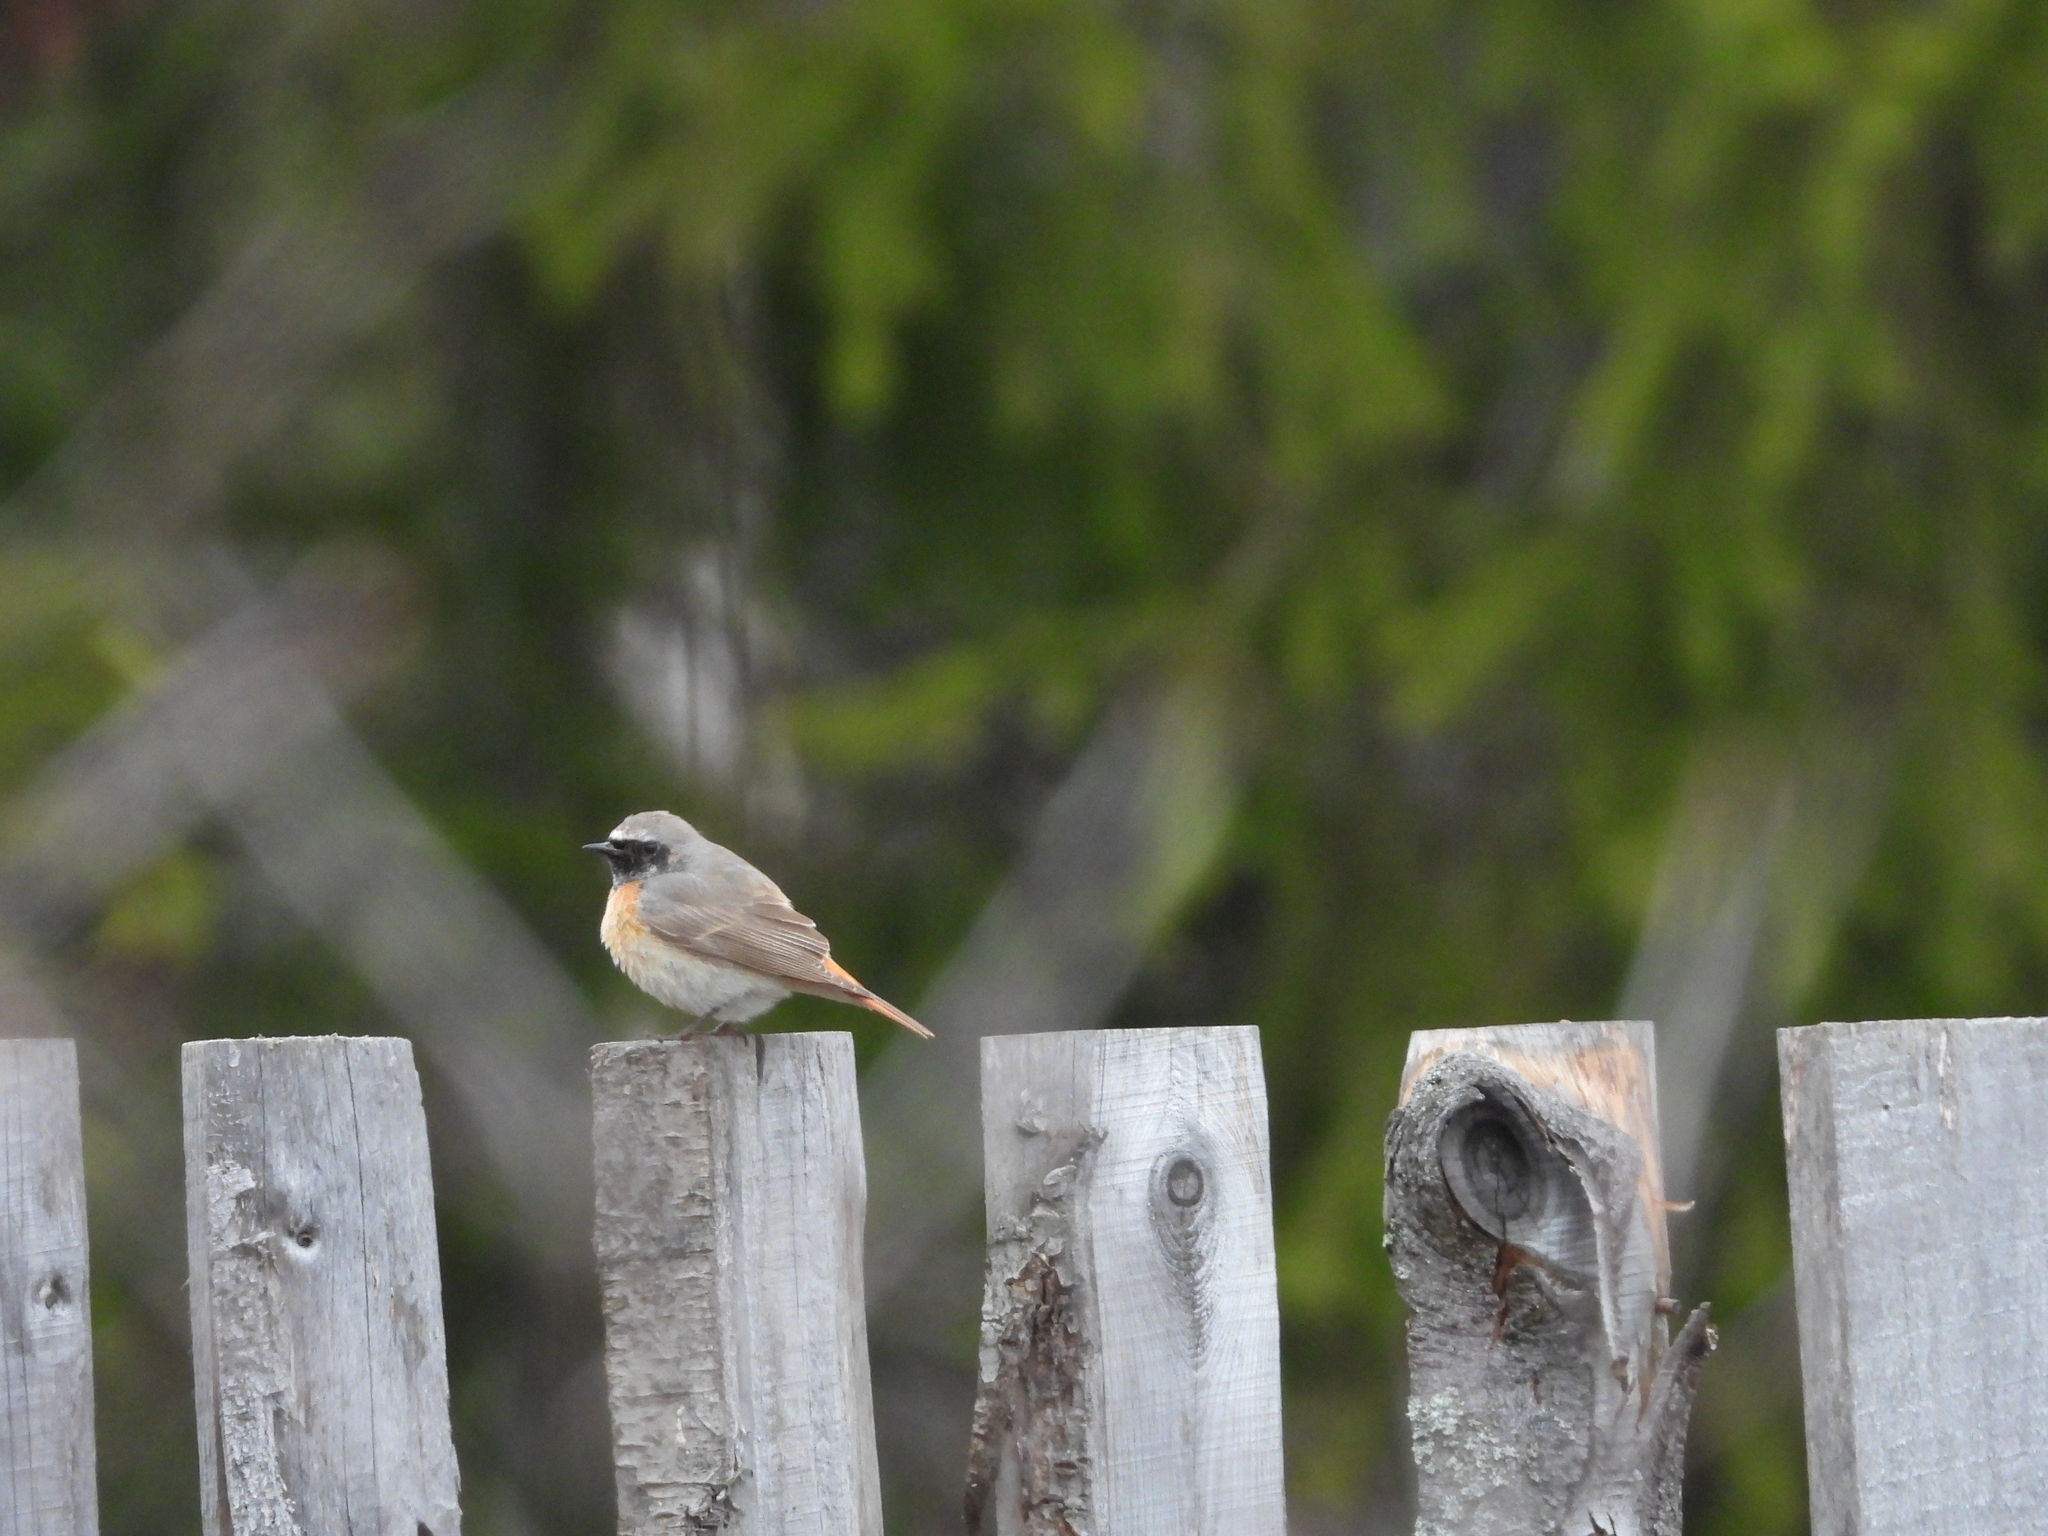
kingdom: Animalia
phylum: Chordata
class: Aves
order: Passeriformes
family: Muscicapidae
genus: Phoenicurus
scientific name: Phoenicurus phoenicurus
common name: Common redstart
